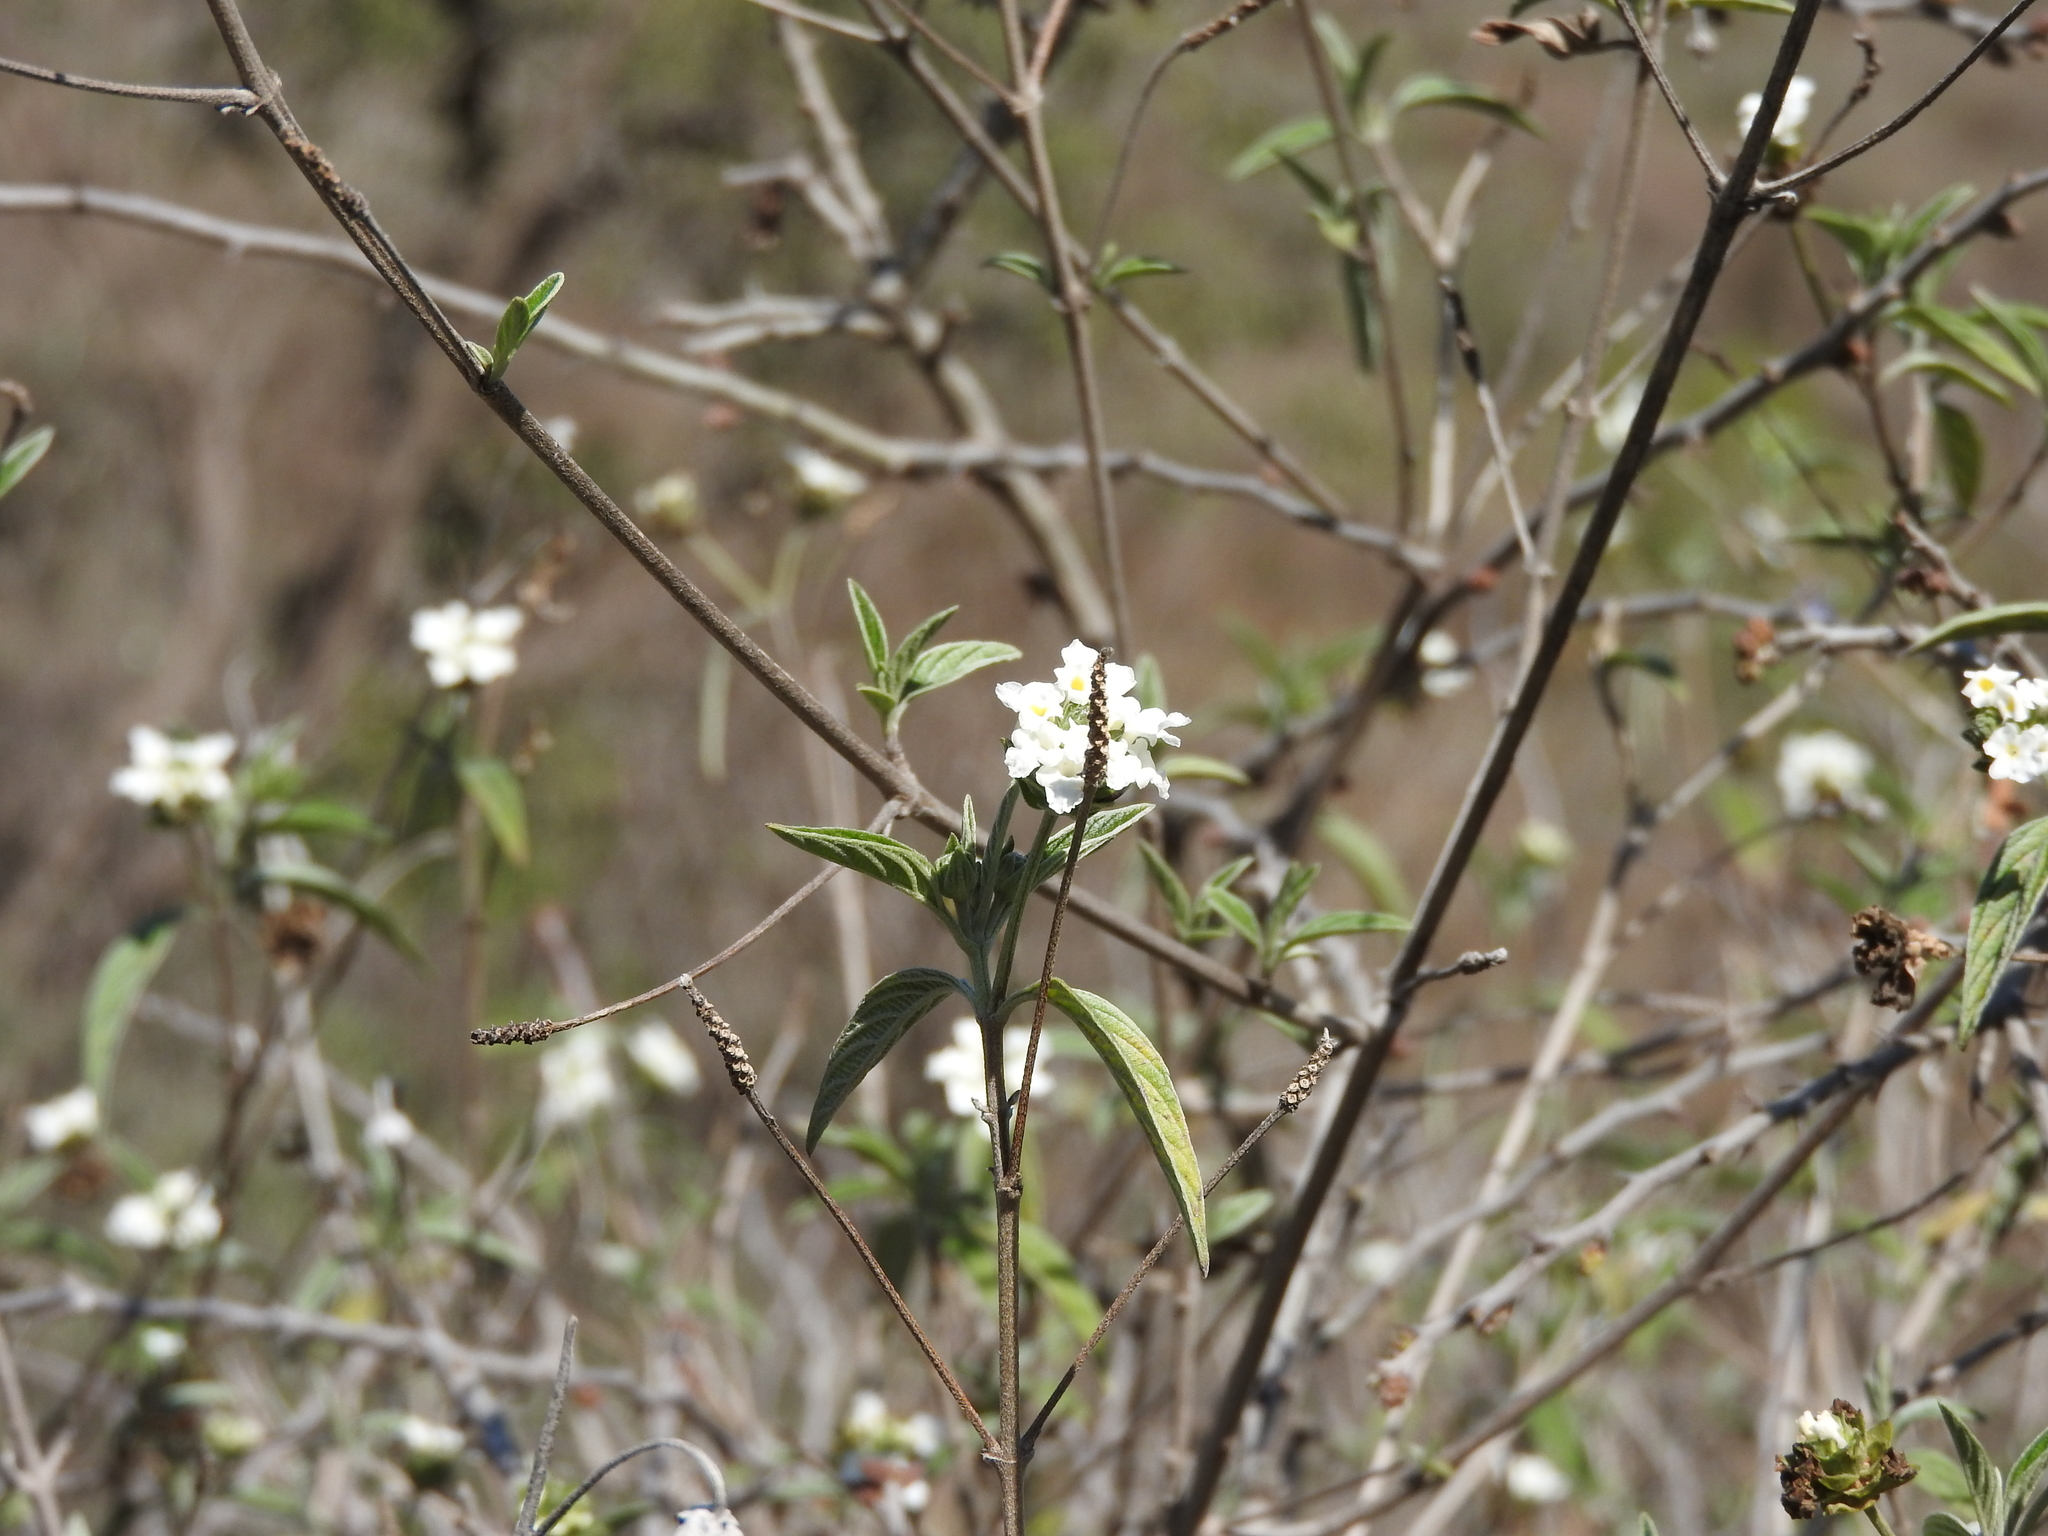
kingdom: Plantae
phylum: Tracheophyta
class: Magnoliopsida
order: Lamiales
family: Verbenaceae
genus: Lantana
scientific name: Lantana canescens
